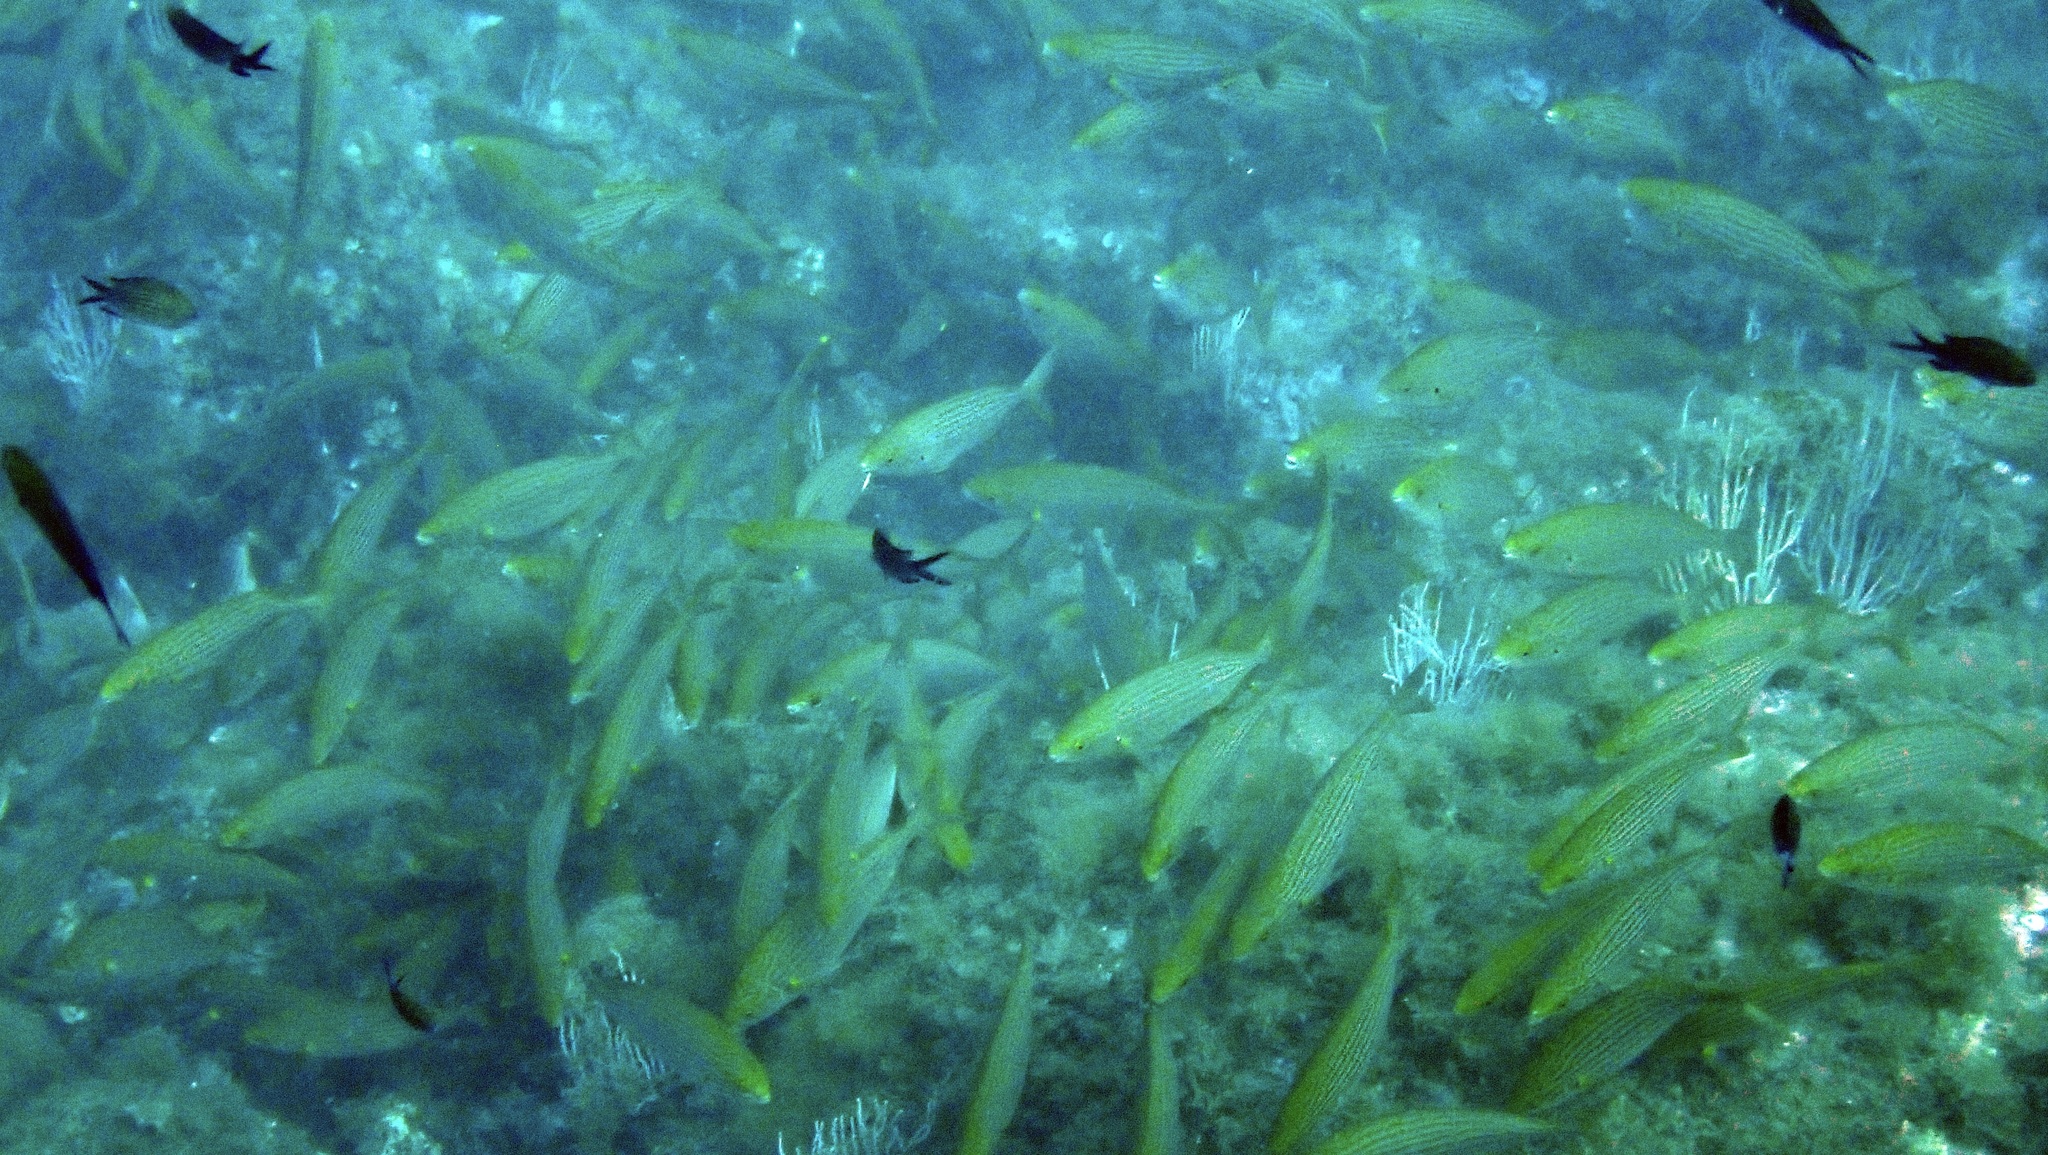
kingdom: Animalia
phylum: Chordata
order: Perciformes
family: Sparidae
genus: Sarpa
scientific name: Sarpa salpa
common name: Salema
